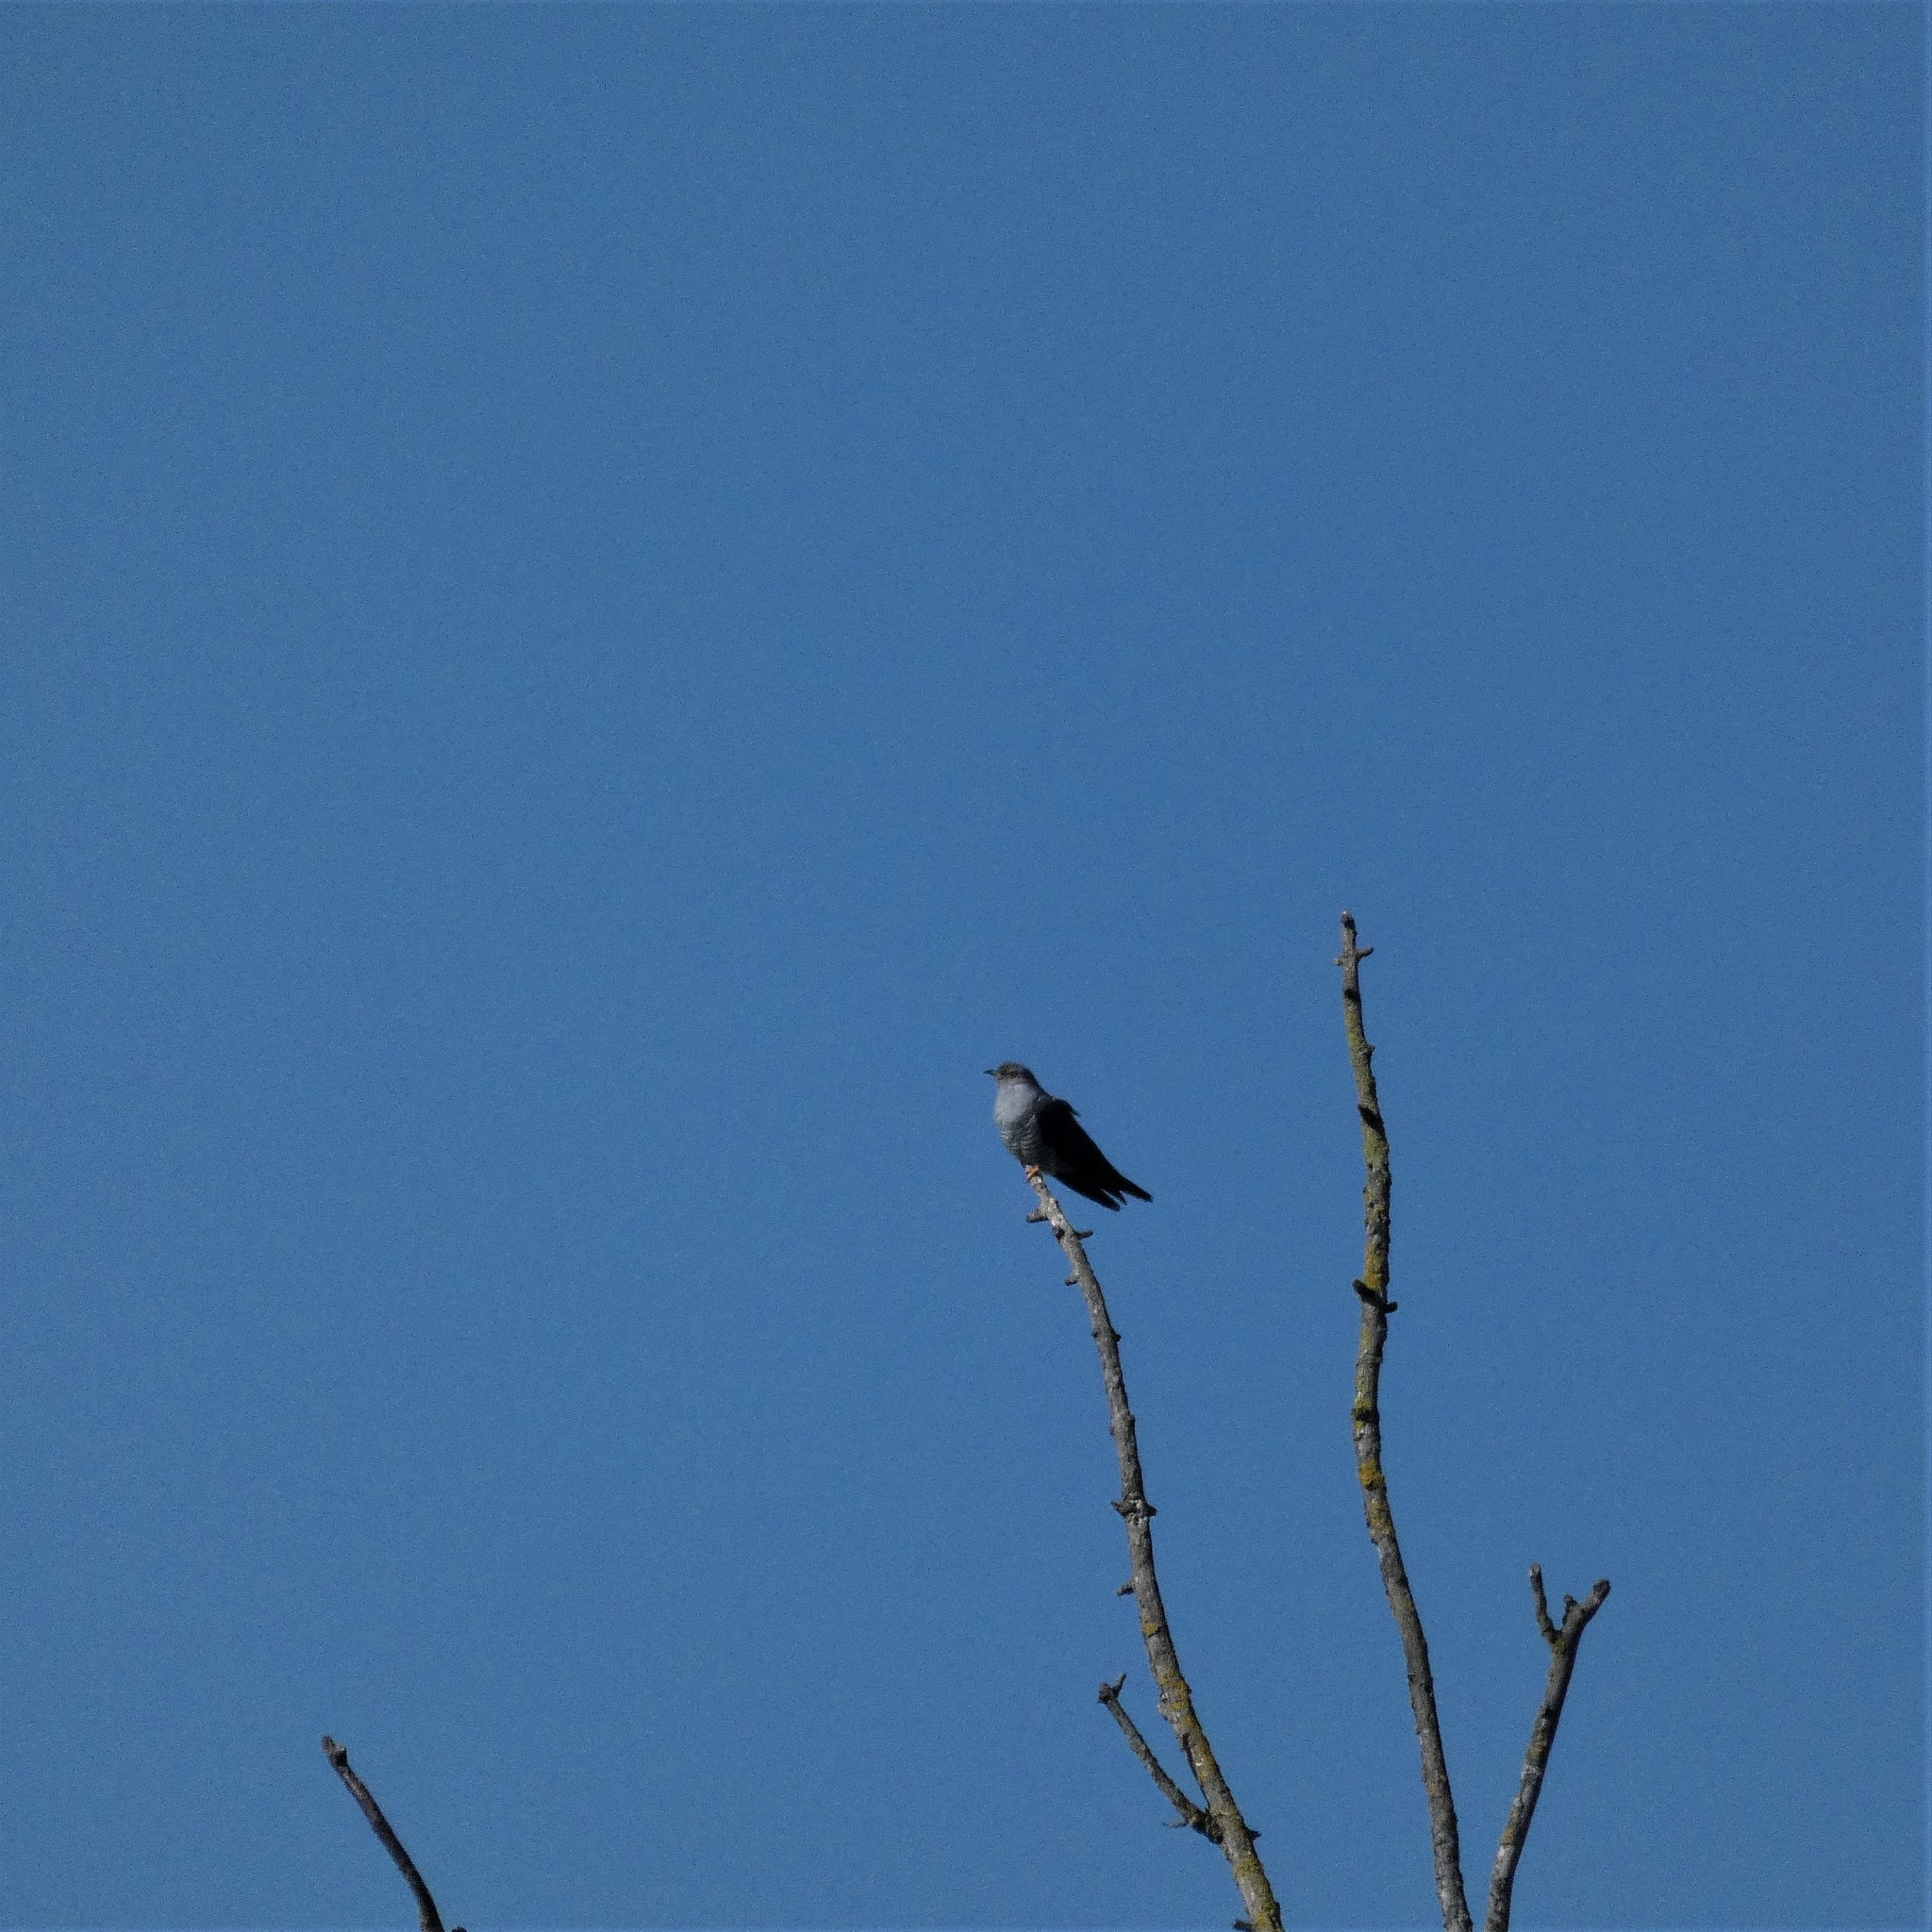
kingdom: Animalia
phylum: Chordata
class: Aves
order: Cuculiformes
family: Cuculidae
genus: Cuculus
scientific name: Cuculus canorus
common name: Common cuckoo
